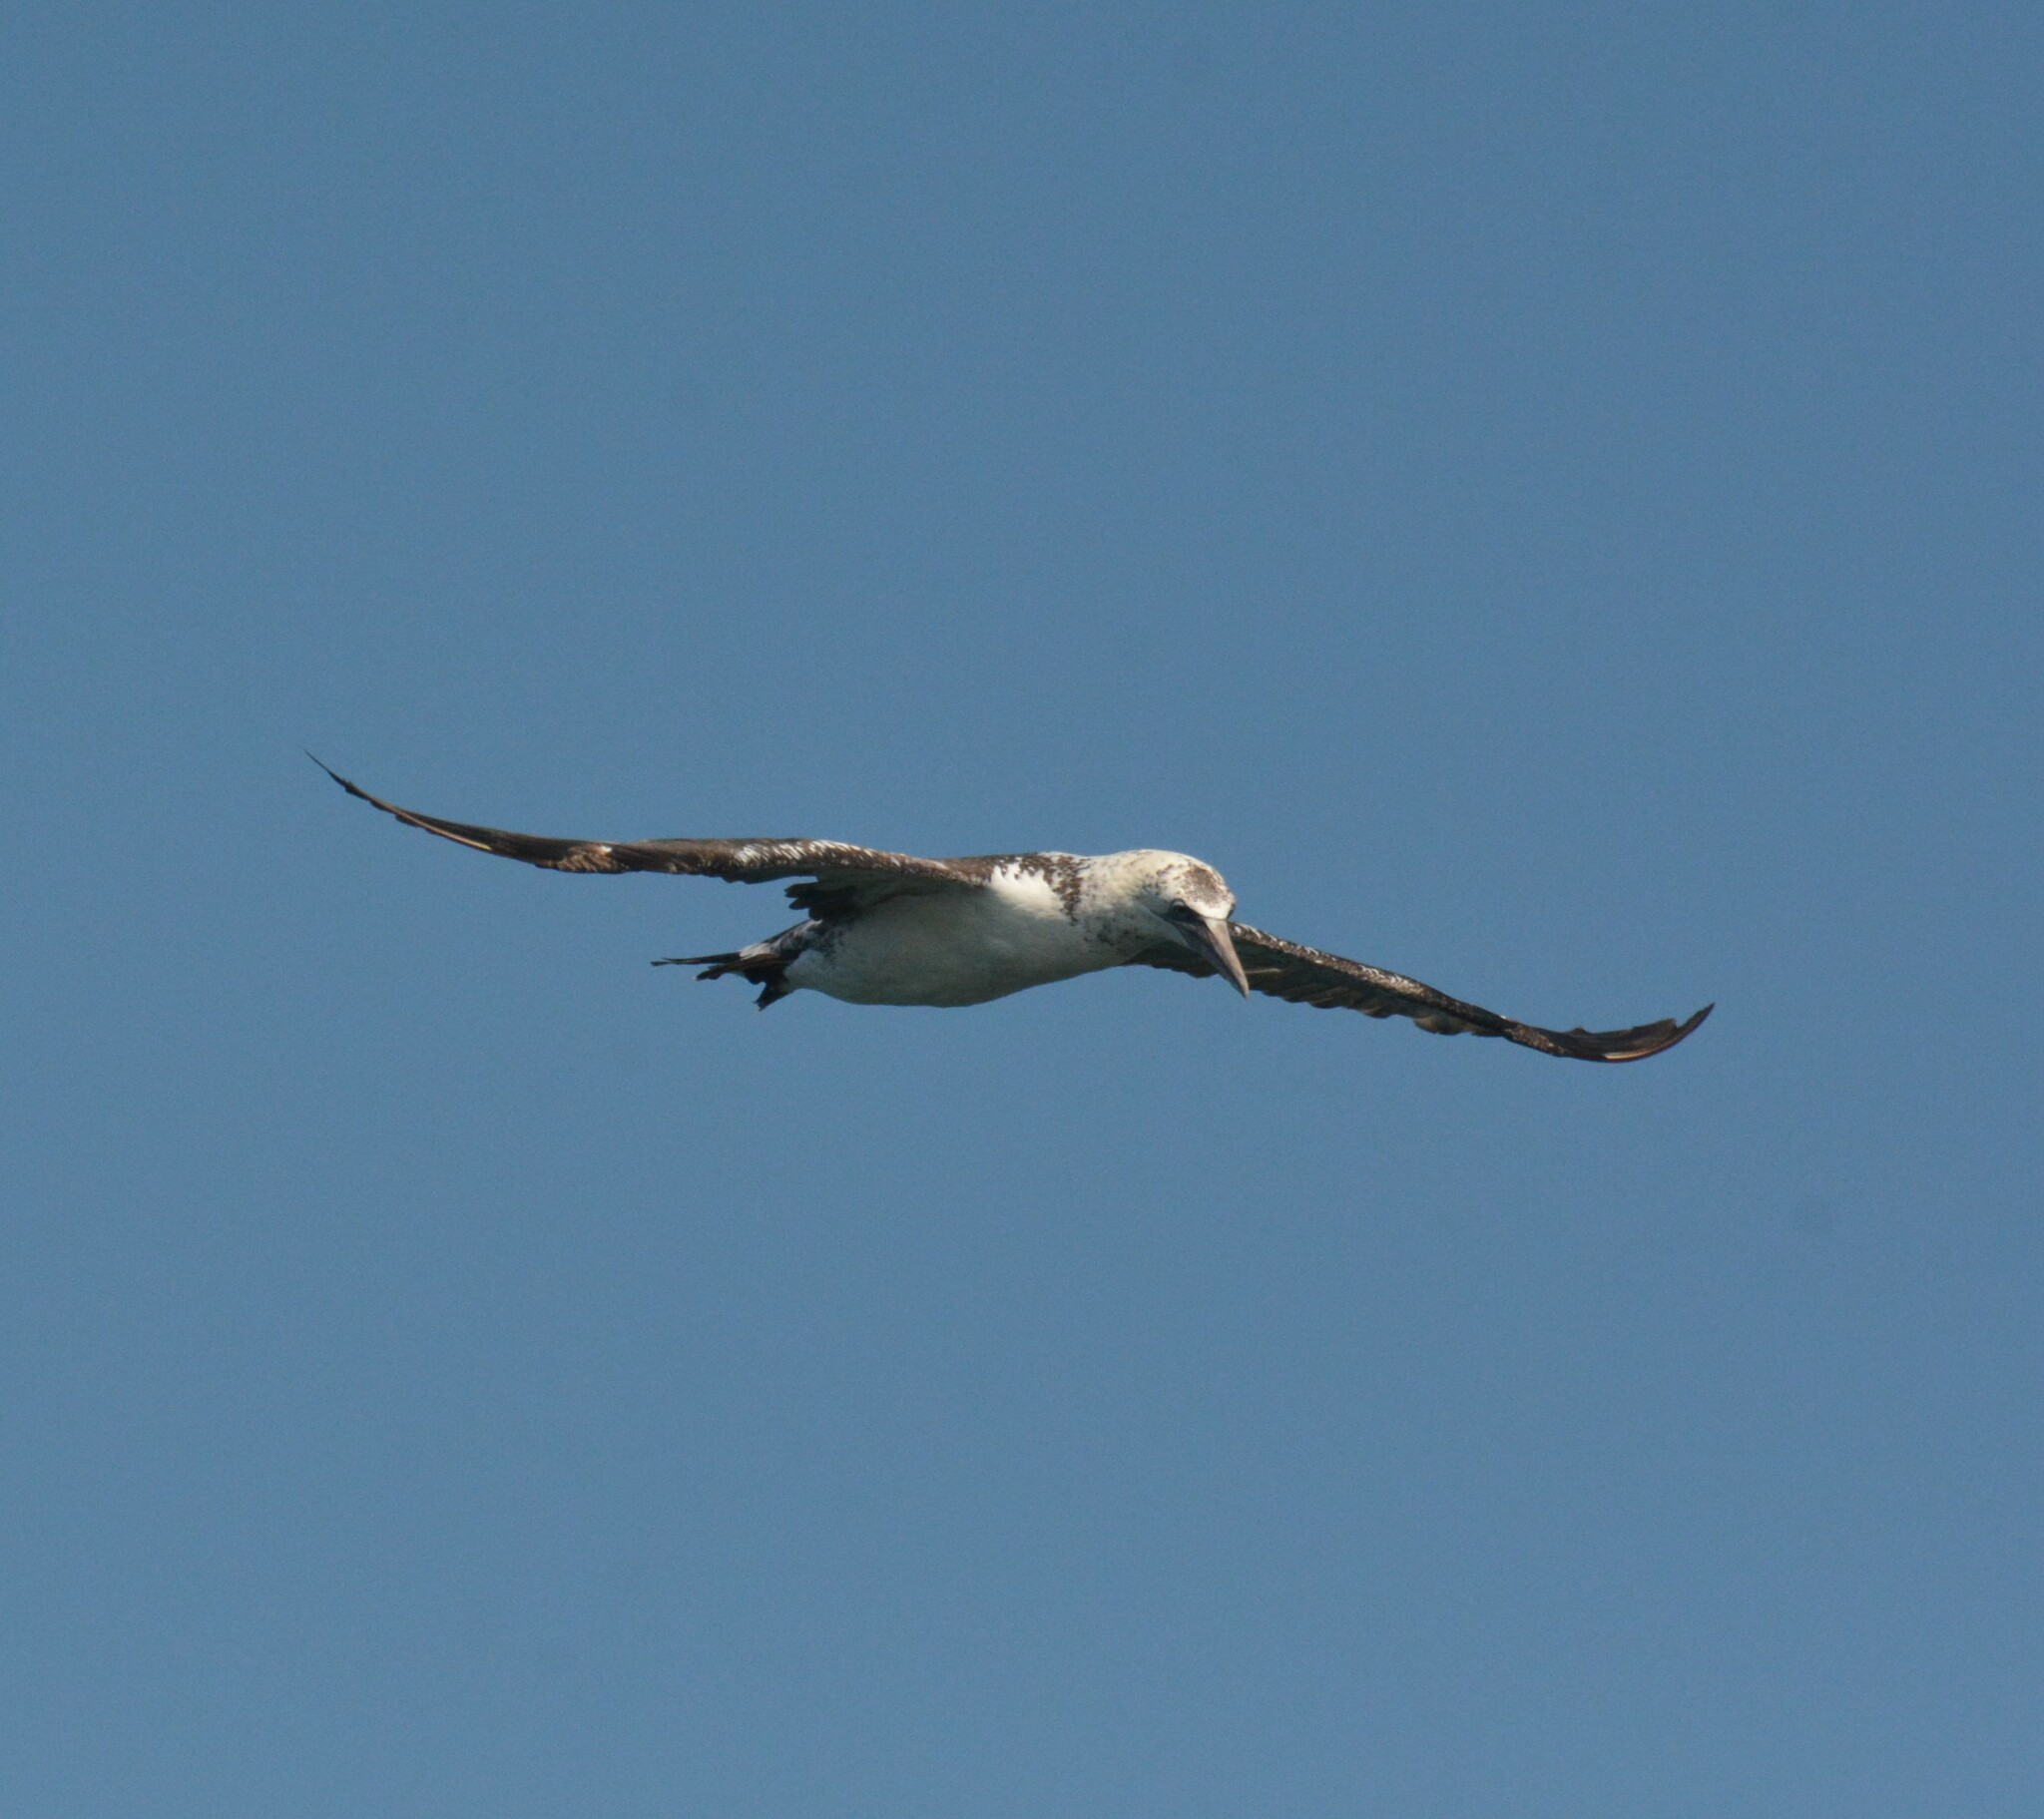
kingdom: Animalia
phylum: Chordata
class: Aves
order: Suliformes
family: Sulidae
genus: Morus
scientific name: Morus bassanus
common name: Northern gannet
